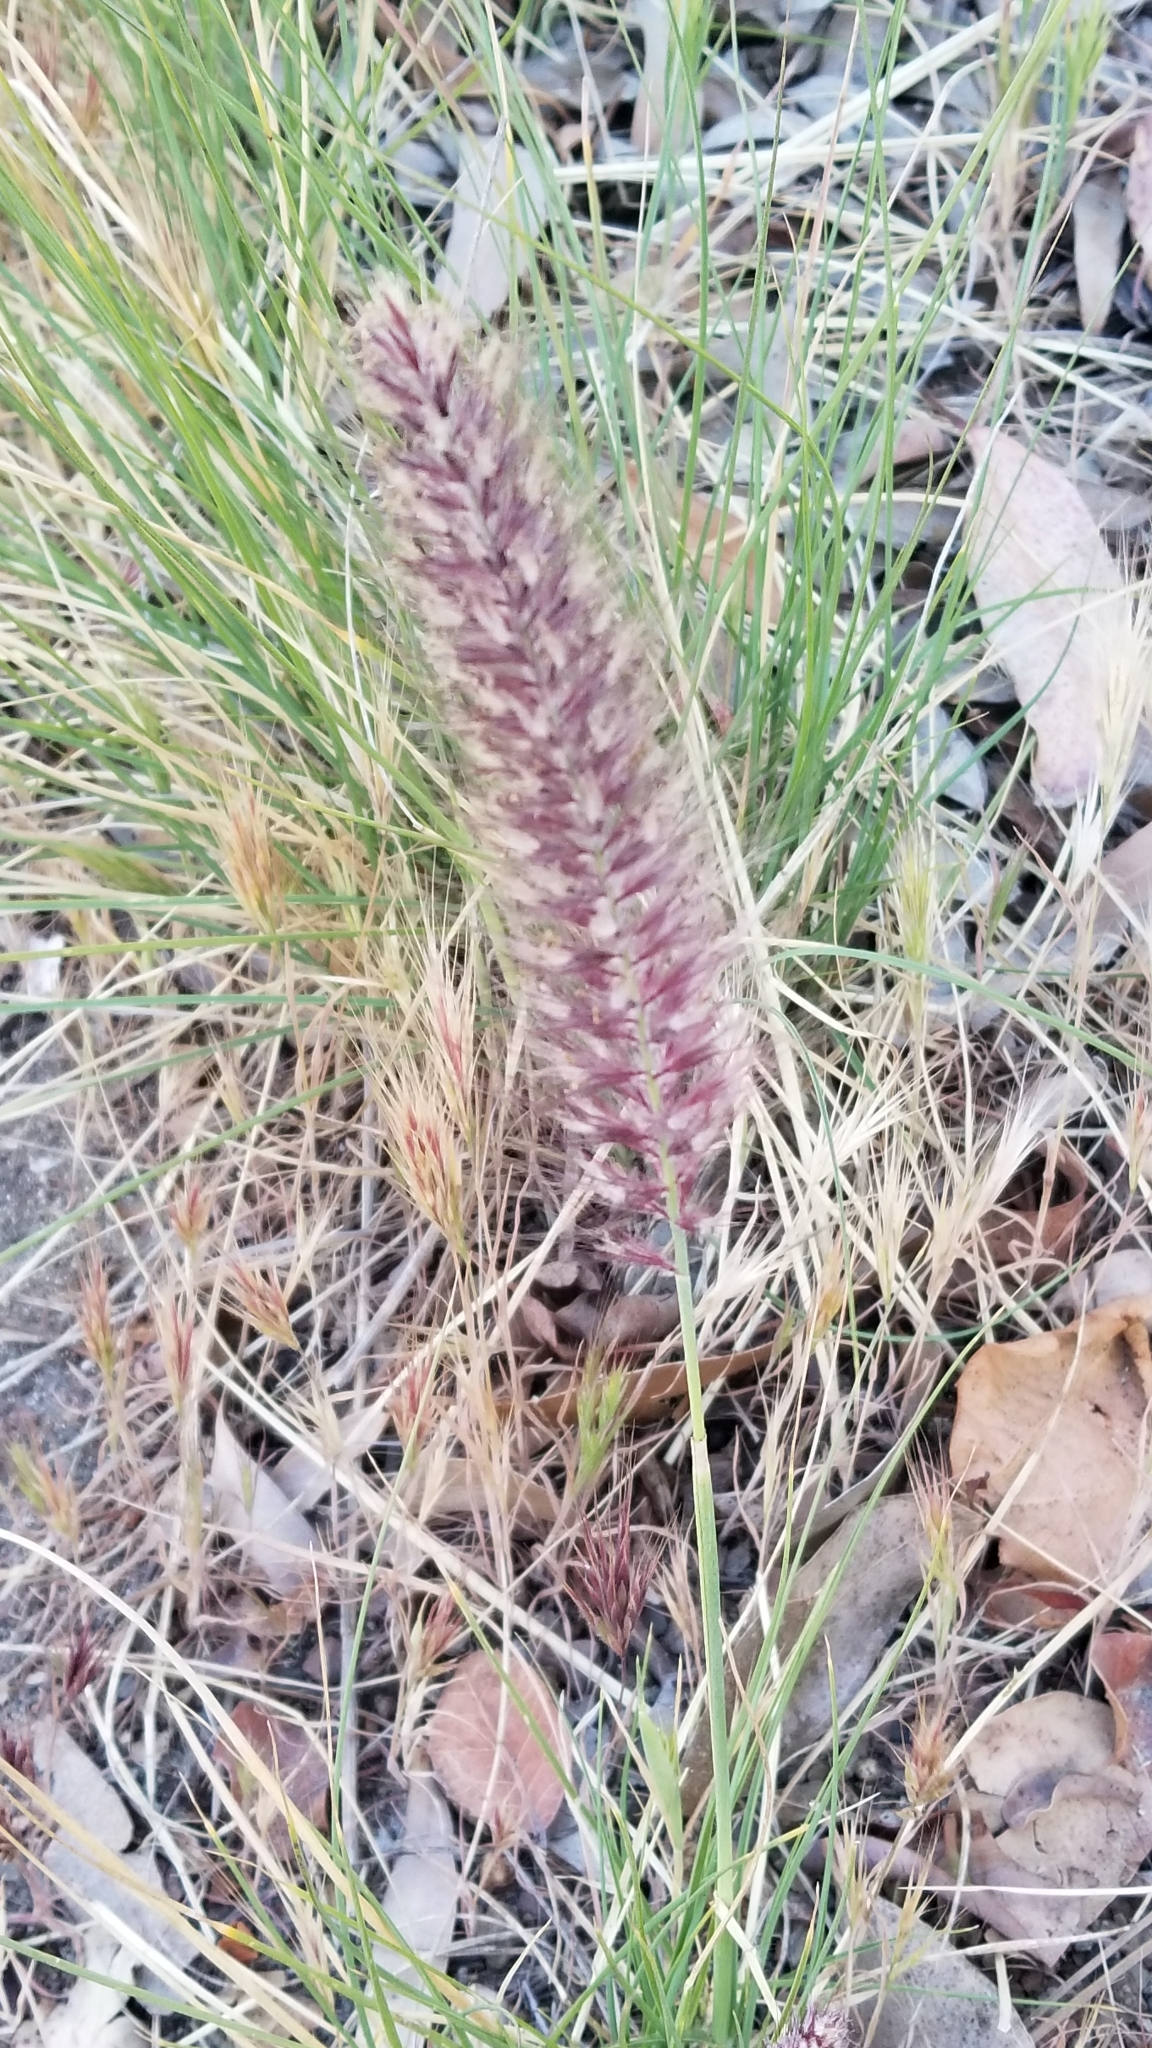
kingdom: Plantae
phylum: Tracheophyta
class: Liliopsida
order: Poales
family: Poaceae
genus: Cenchrus
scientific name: Cenchrus setaceus
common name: Crimson fountaingrass
